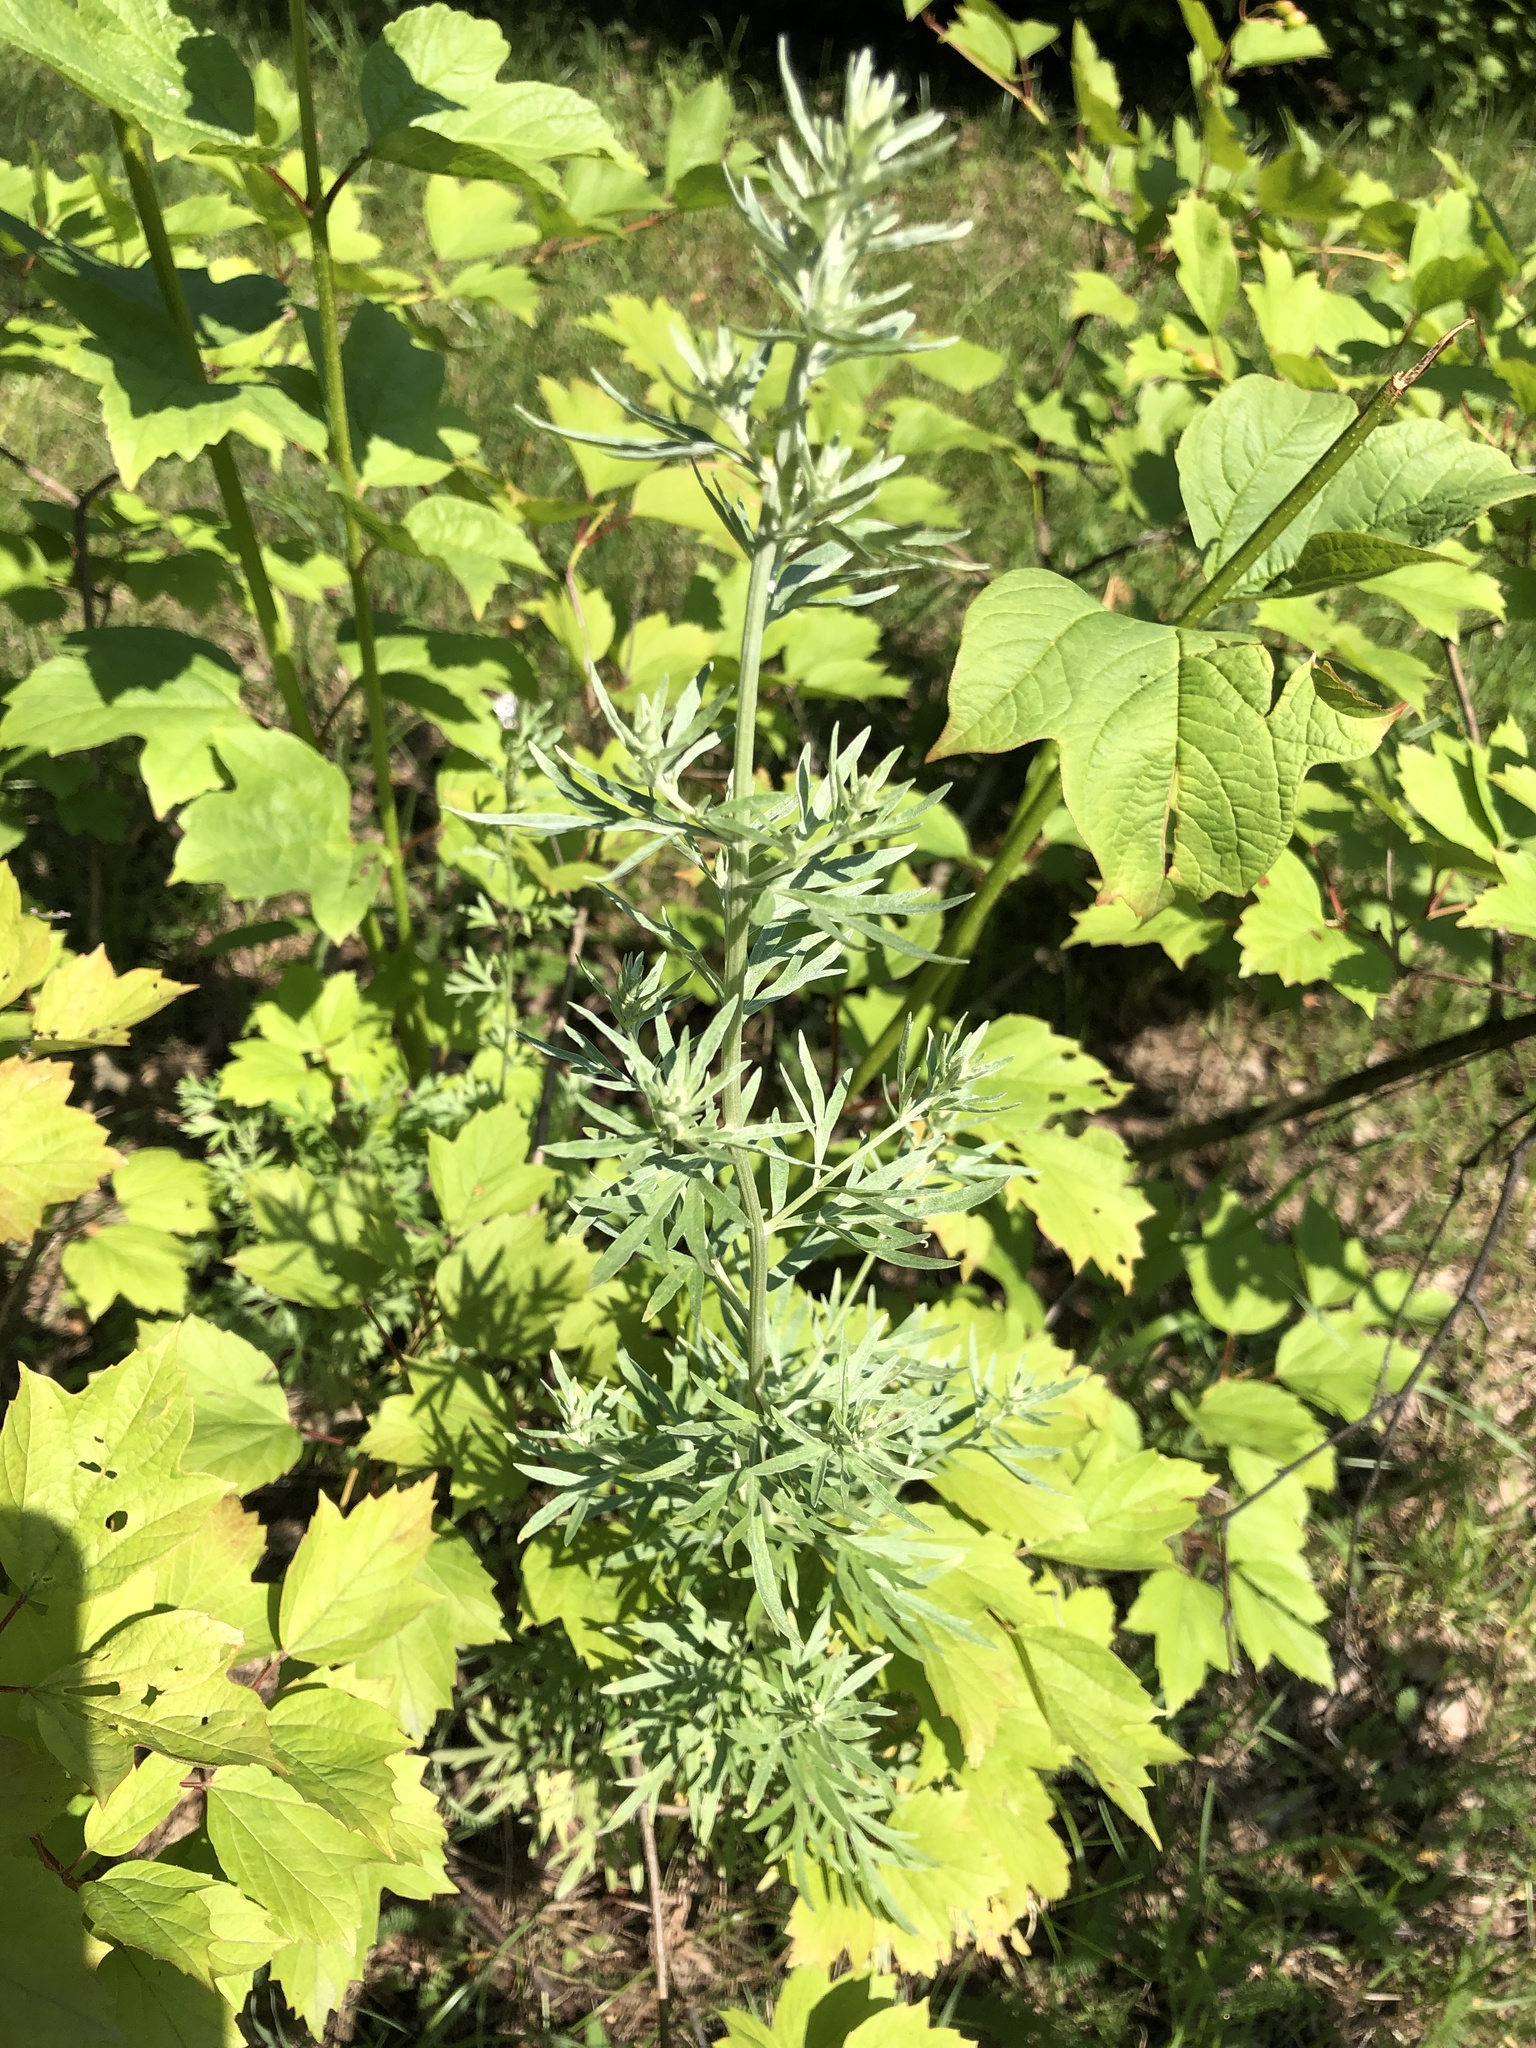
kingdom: Plantae
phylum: Tracheophyta
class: Magnoliopsida
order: Asterales
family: Asteraceae
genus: Artemisia
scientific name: Artemisia absinthium
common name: Wormwood
